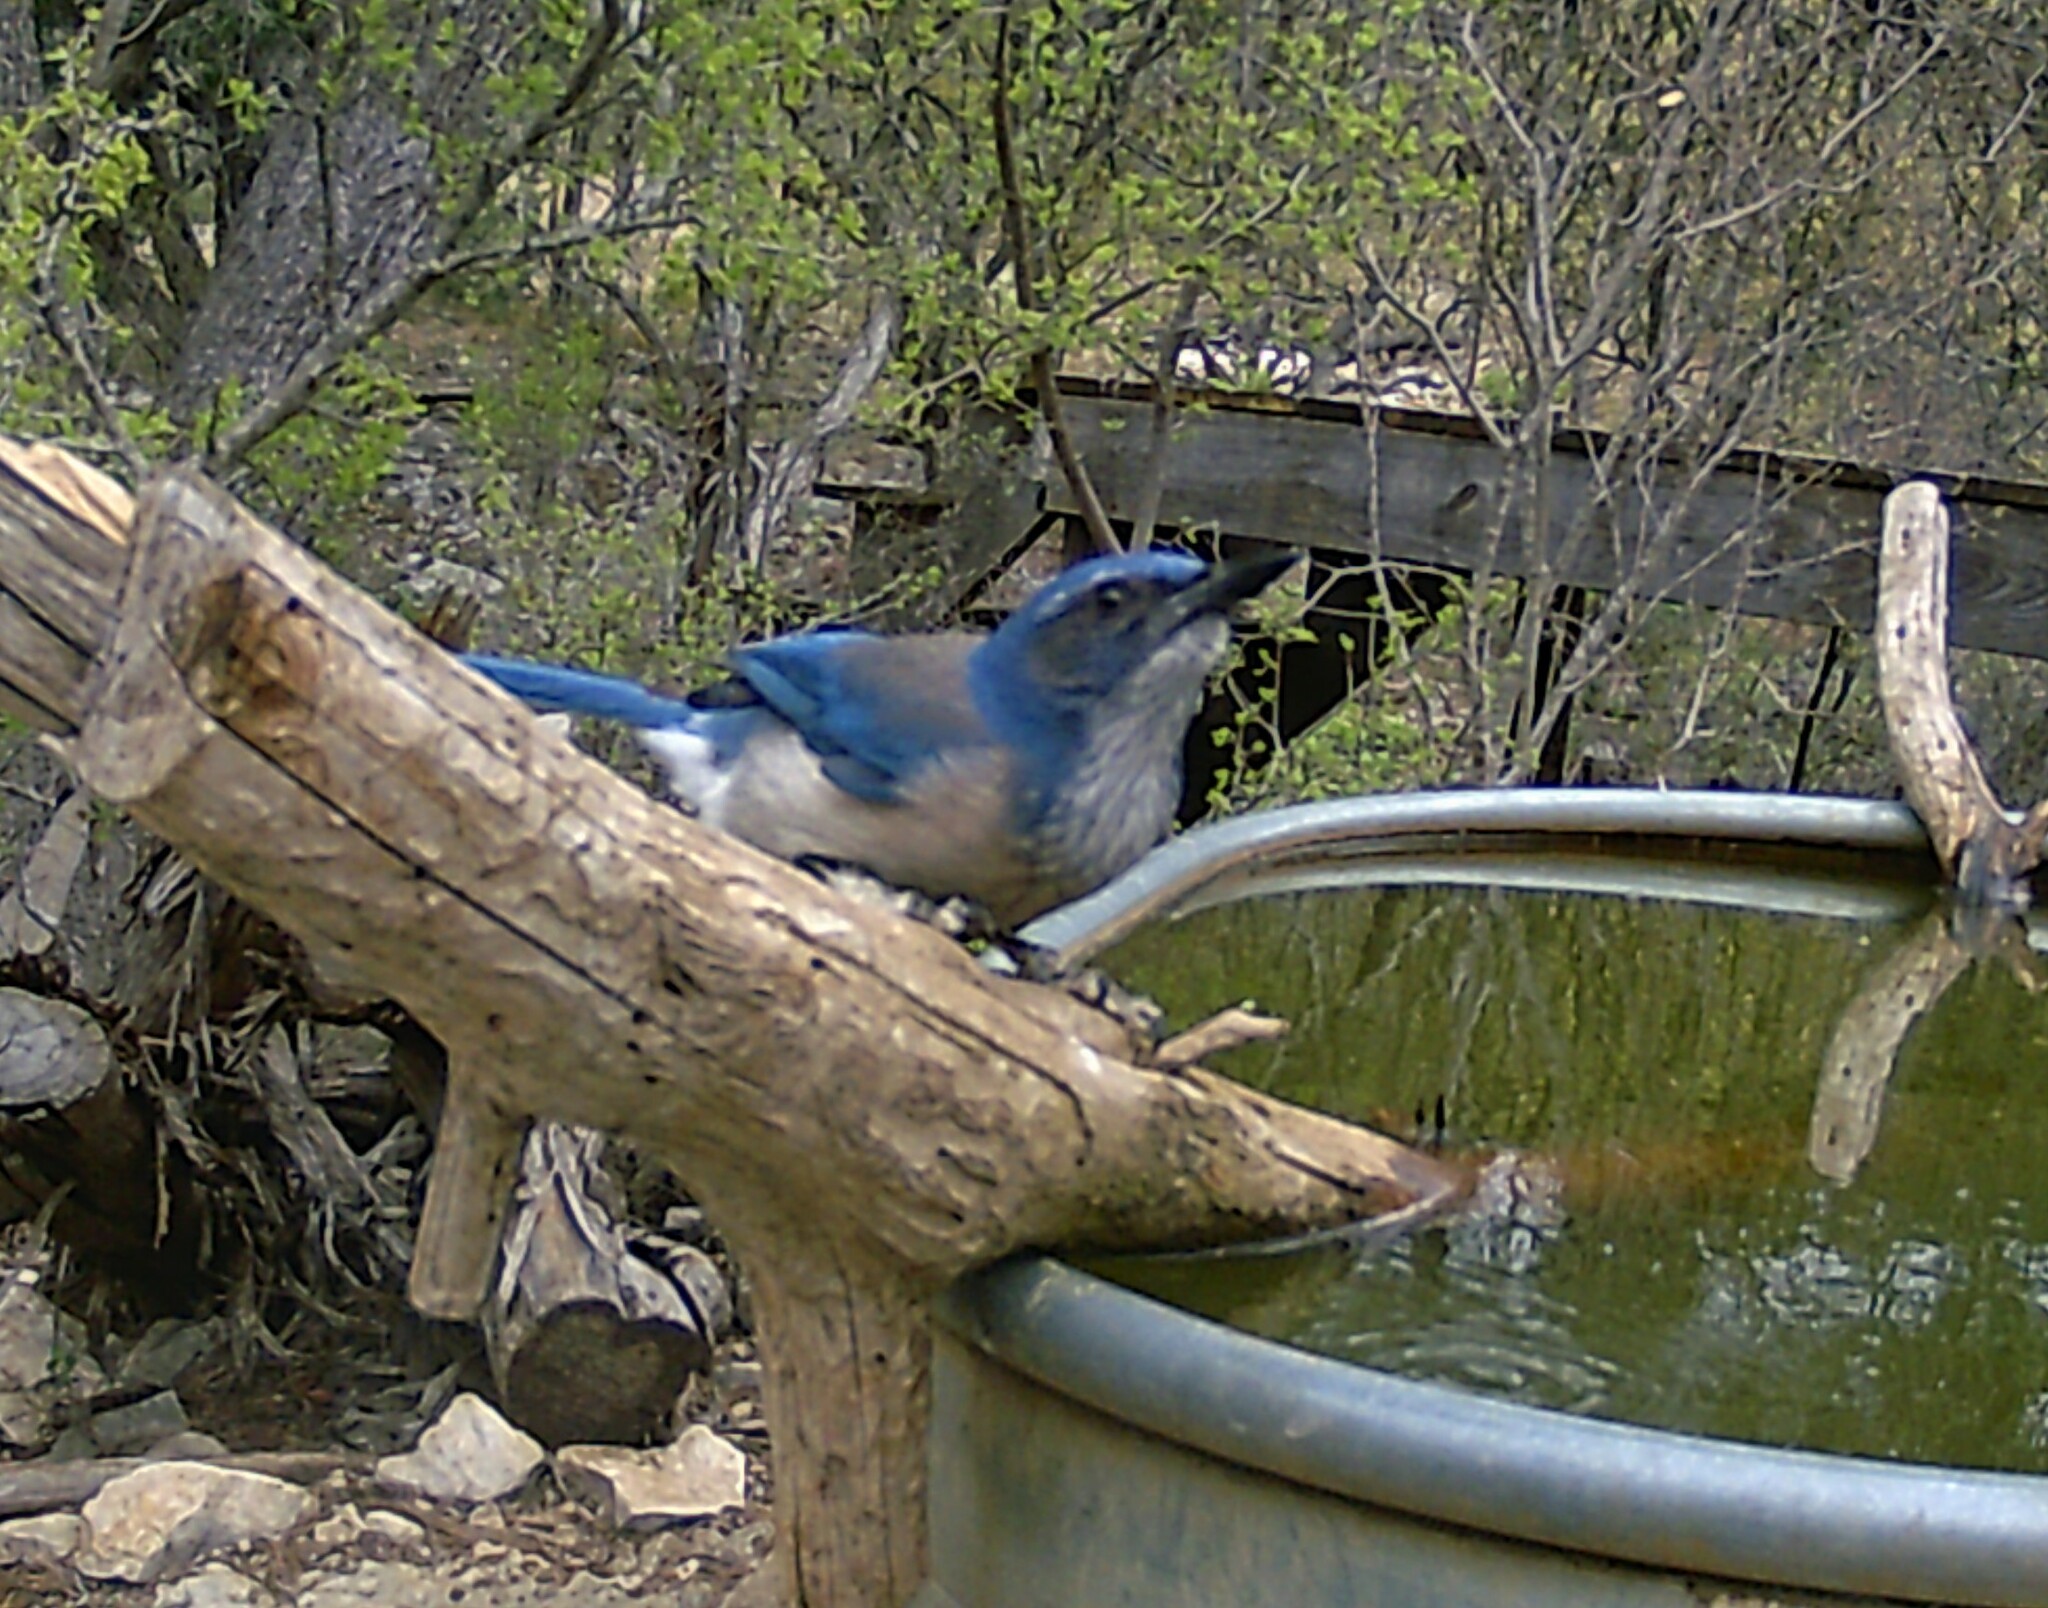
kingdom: Animalia
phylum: Chordata
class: Aves
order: Passeriformes
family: Corvidae
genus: Aphelocoma
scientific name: Aphelocoma woodhouseii
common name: Woodhouse's scrub-jay
